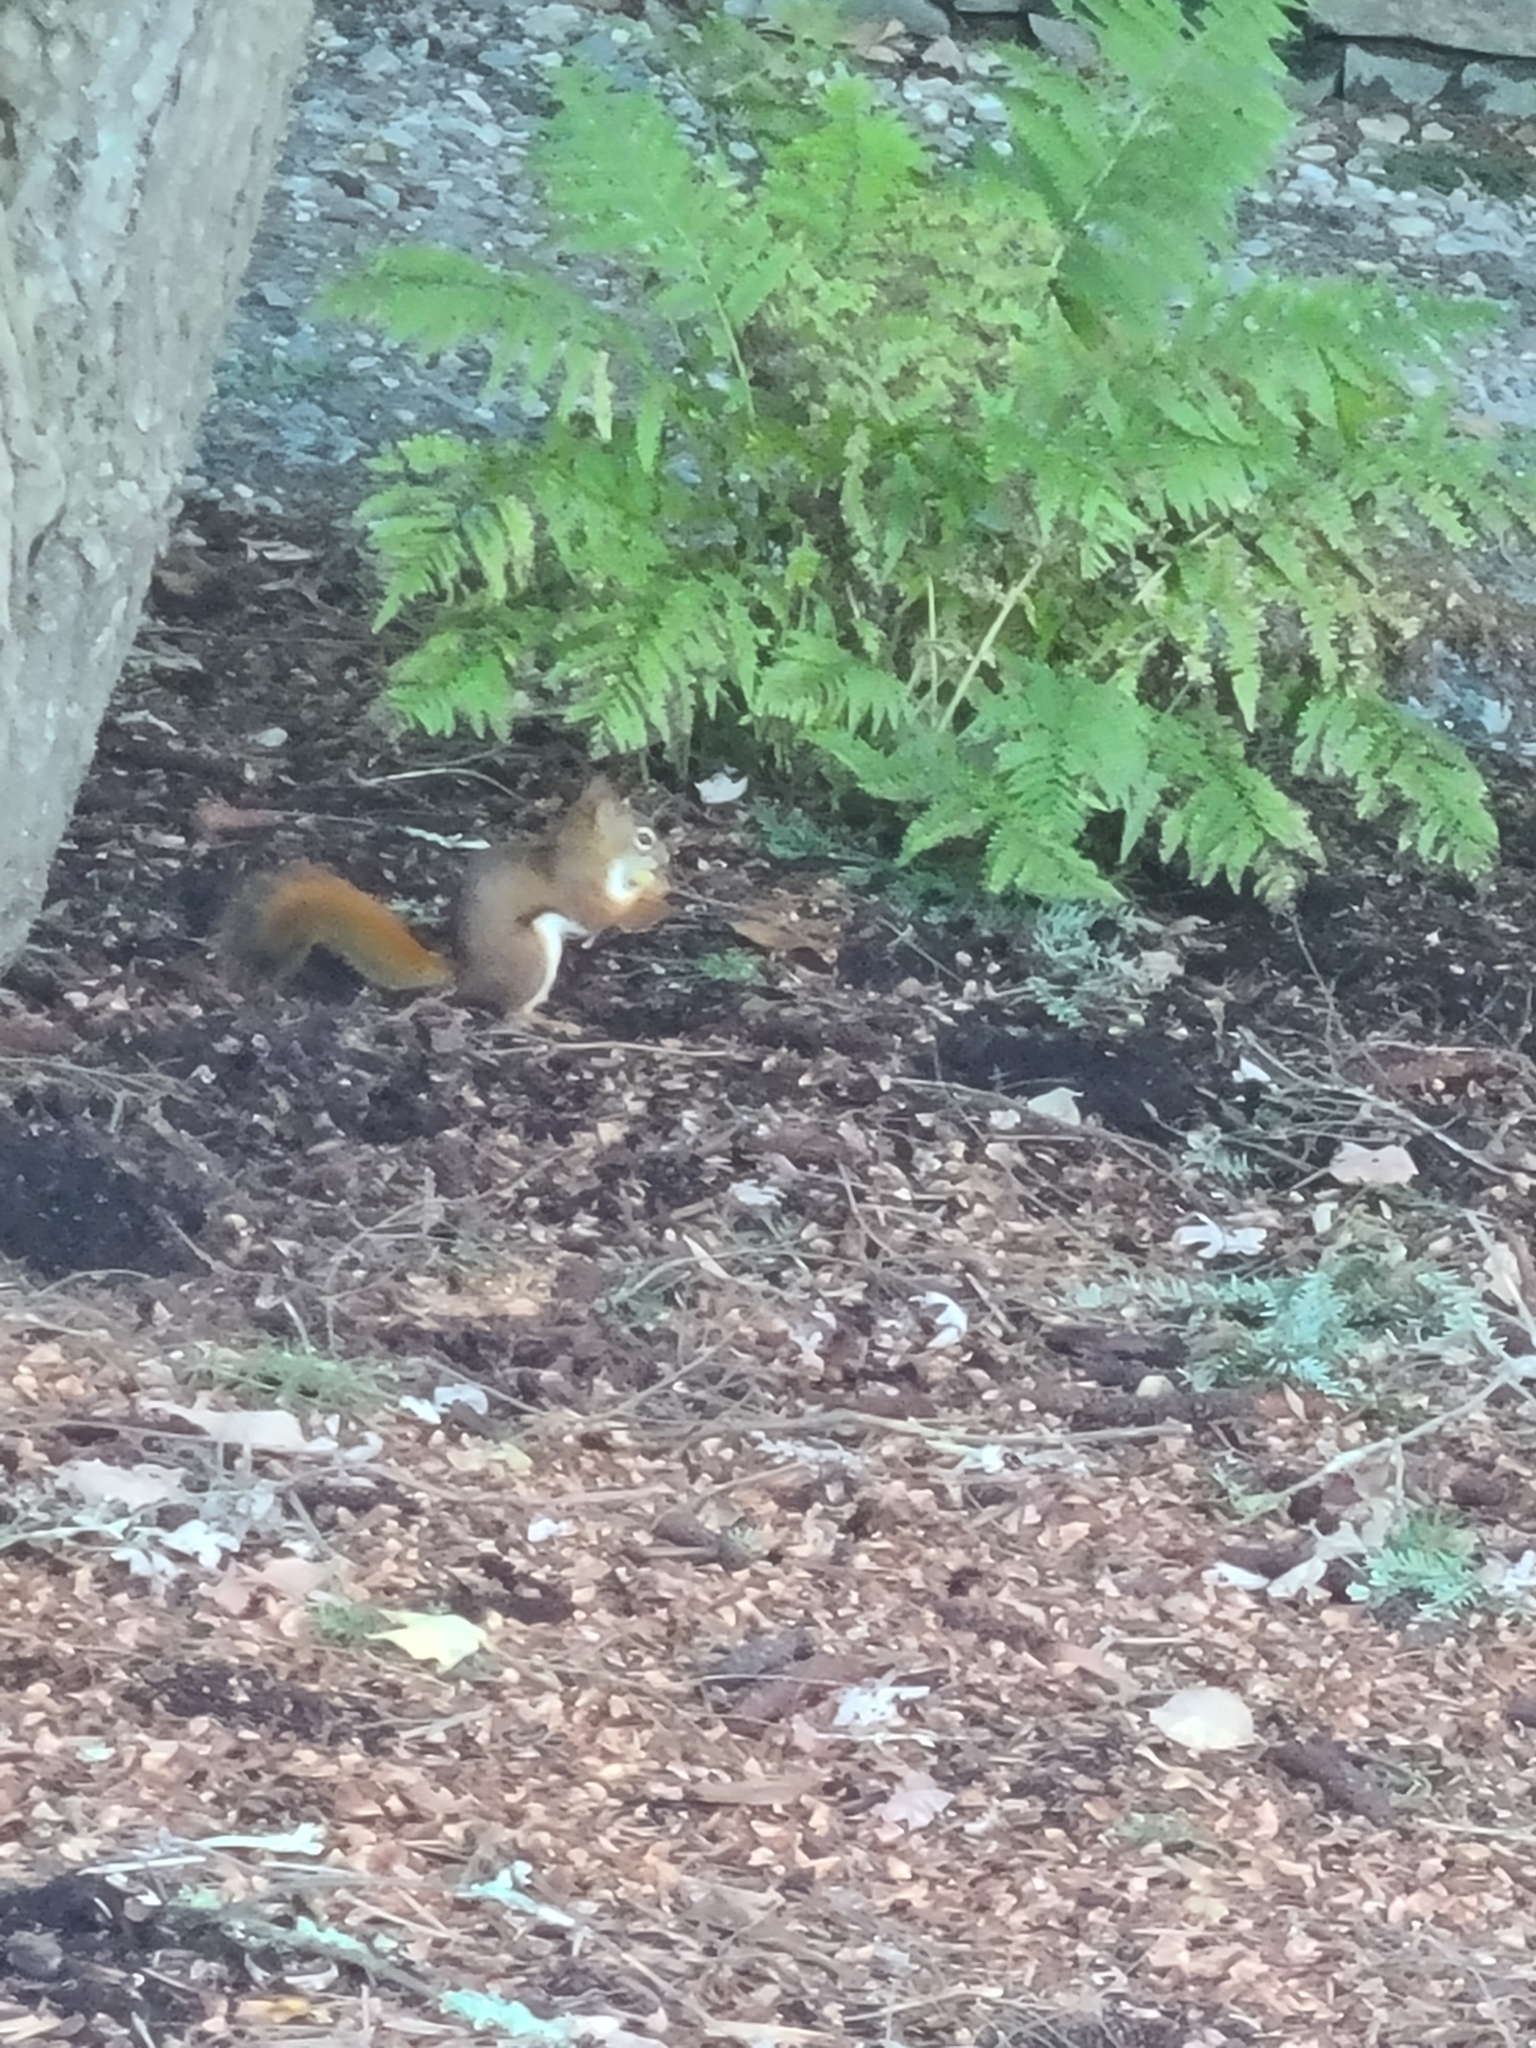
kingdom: Animalia
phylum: Chordata
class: Mammalia
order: Rodentia
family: Sciuridae
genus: Tamiasciurus
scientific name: Tamiasciurus hudsonicus
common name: Red squirrel
